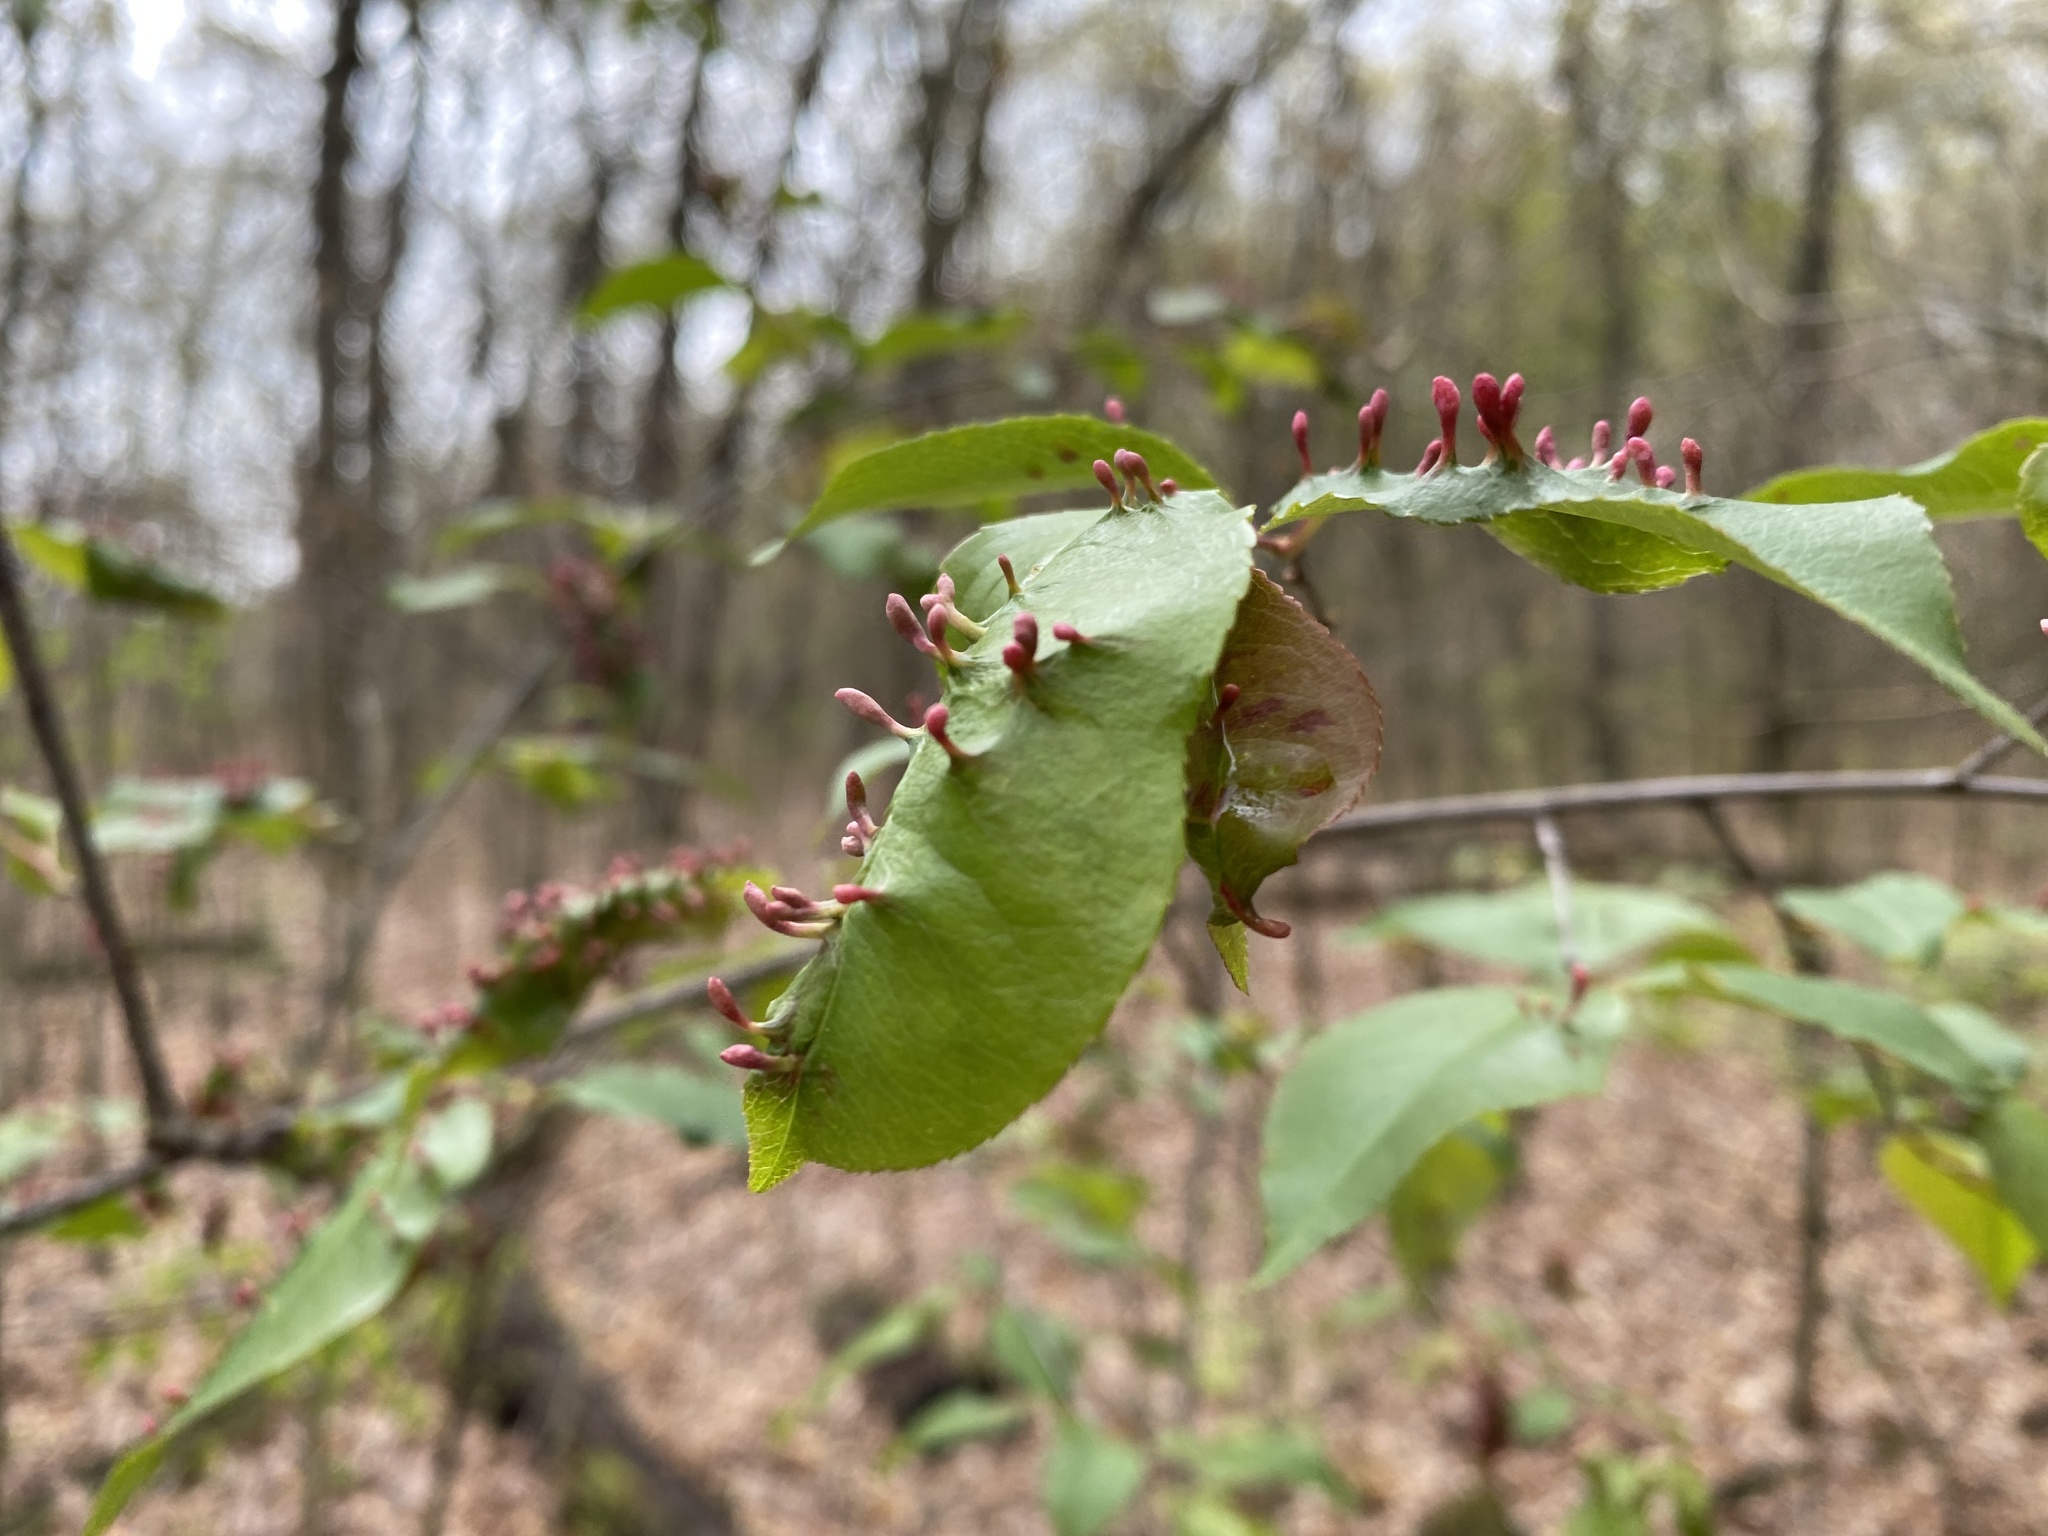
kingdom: Animalia
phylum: Arthropoda
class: Arachnida
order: Trombidiformes
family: Eriophyidae
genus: Eriophyes
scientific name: Eriophyes
